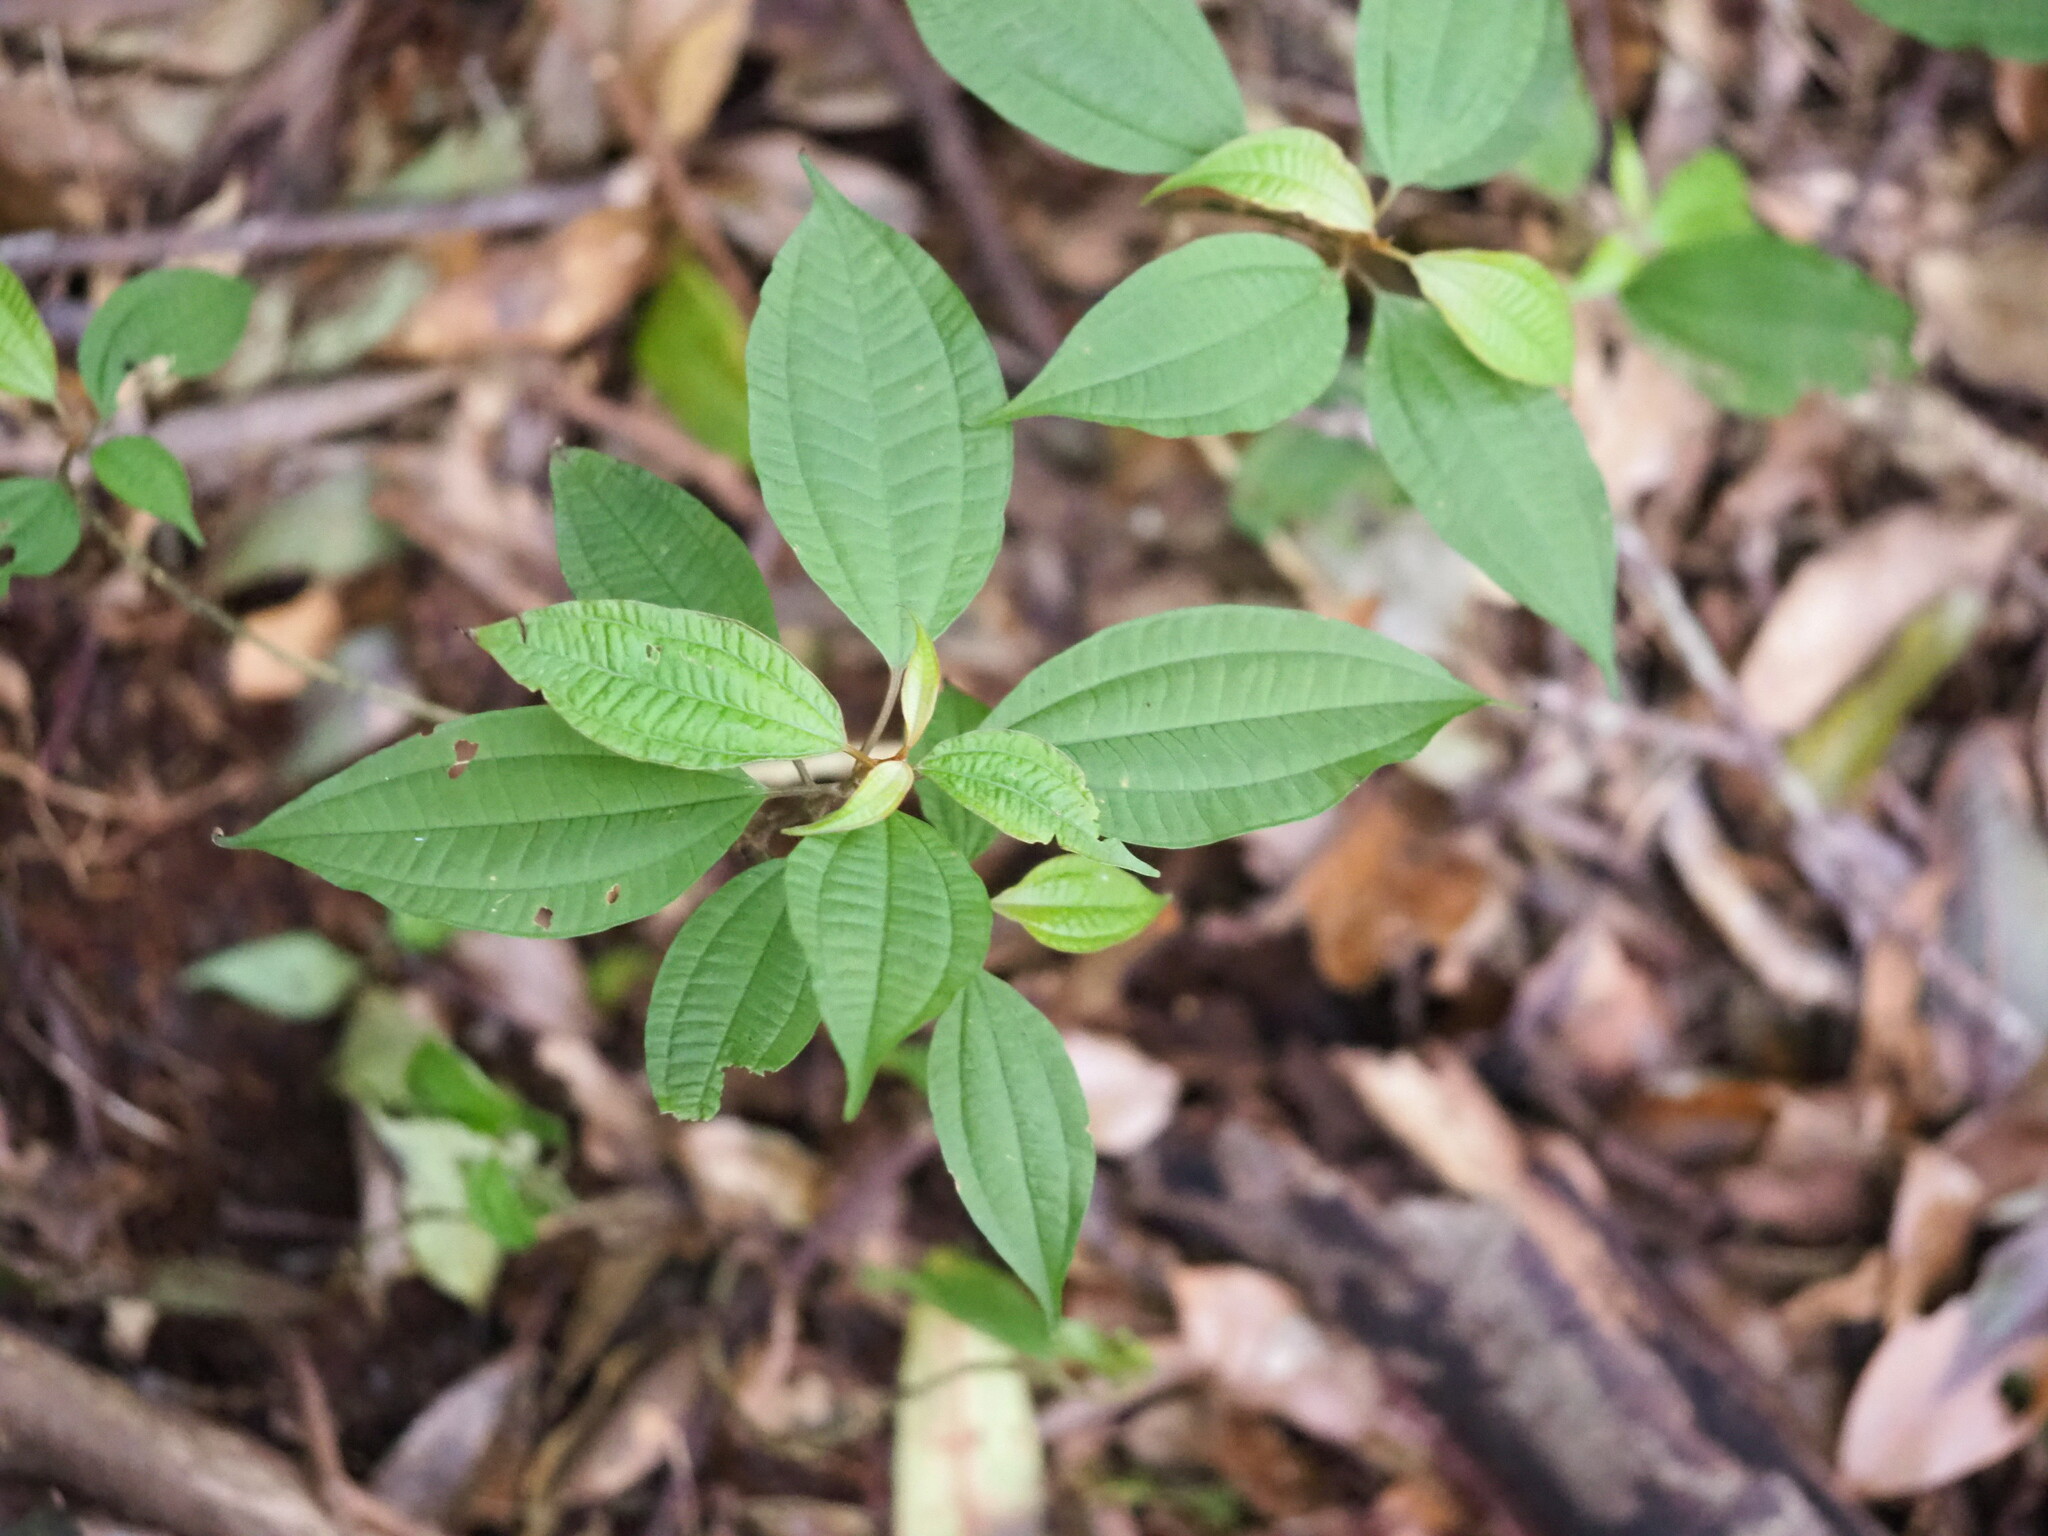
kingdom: Plantae
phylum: Tracheophyta
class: Magnoliopsida
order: Myrtales
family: Melastomataceae
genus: Blastus
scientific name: Blastus cochinchinensis
